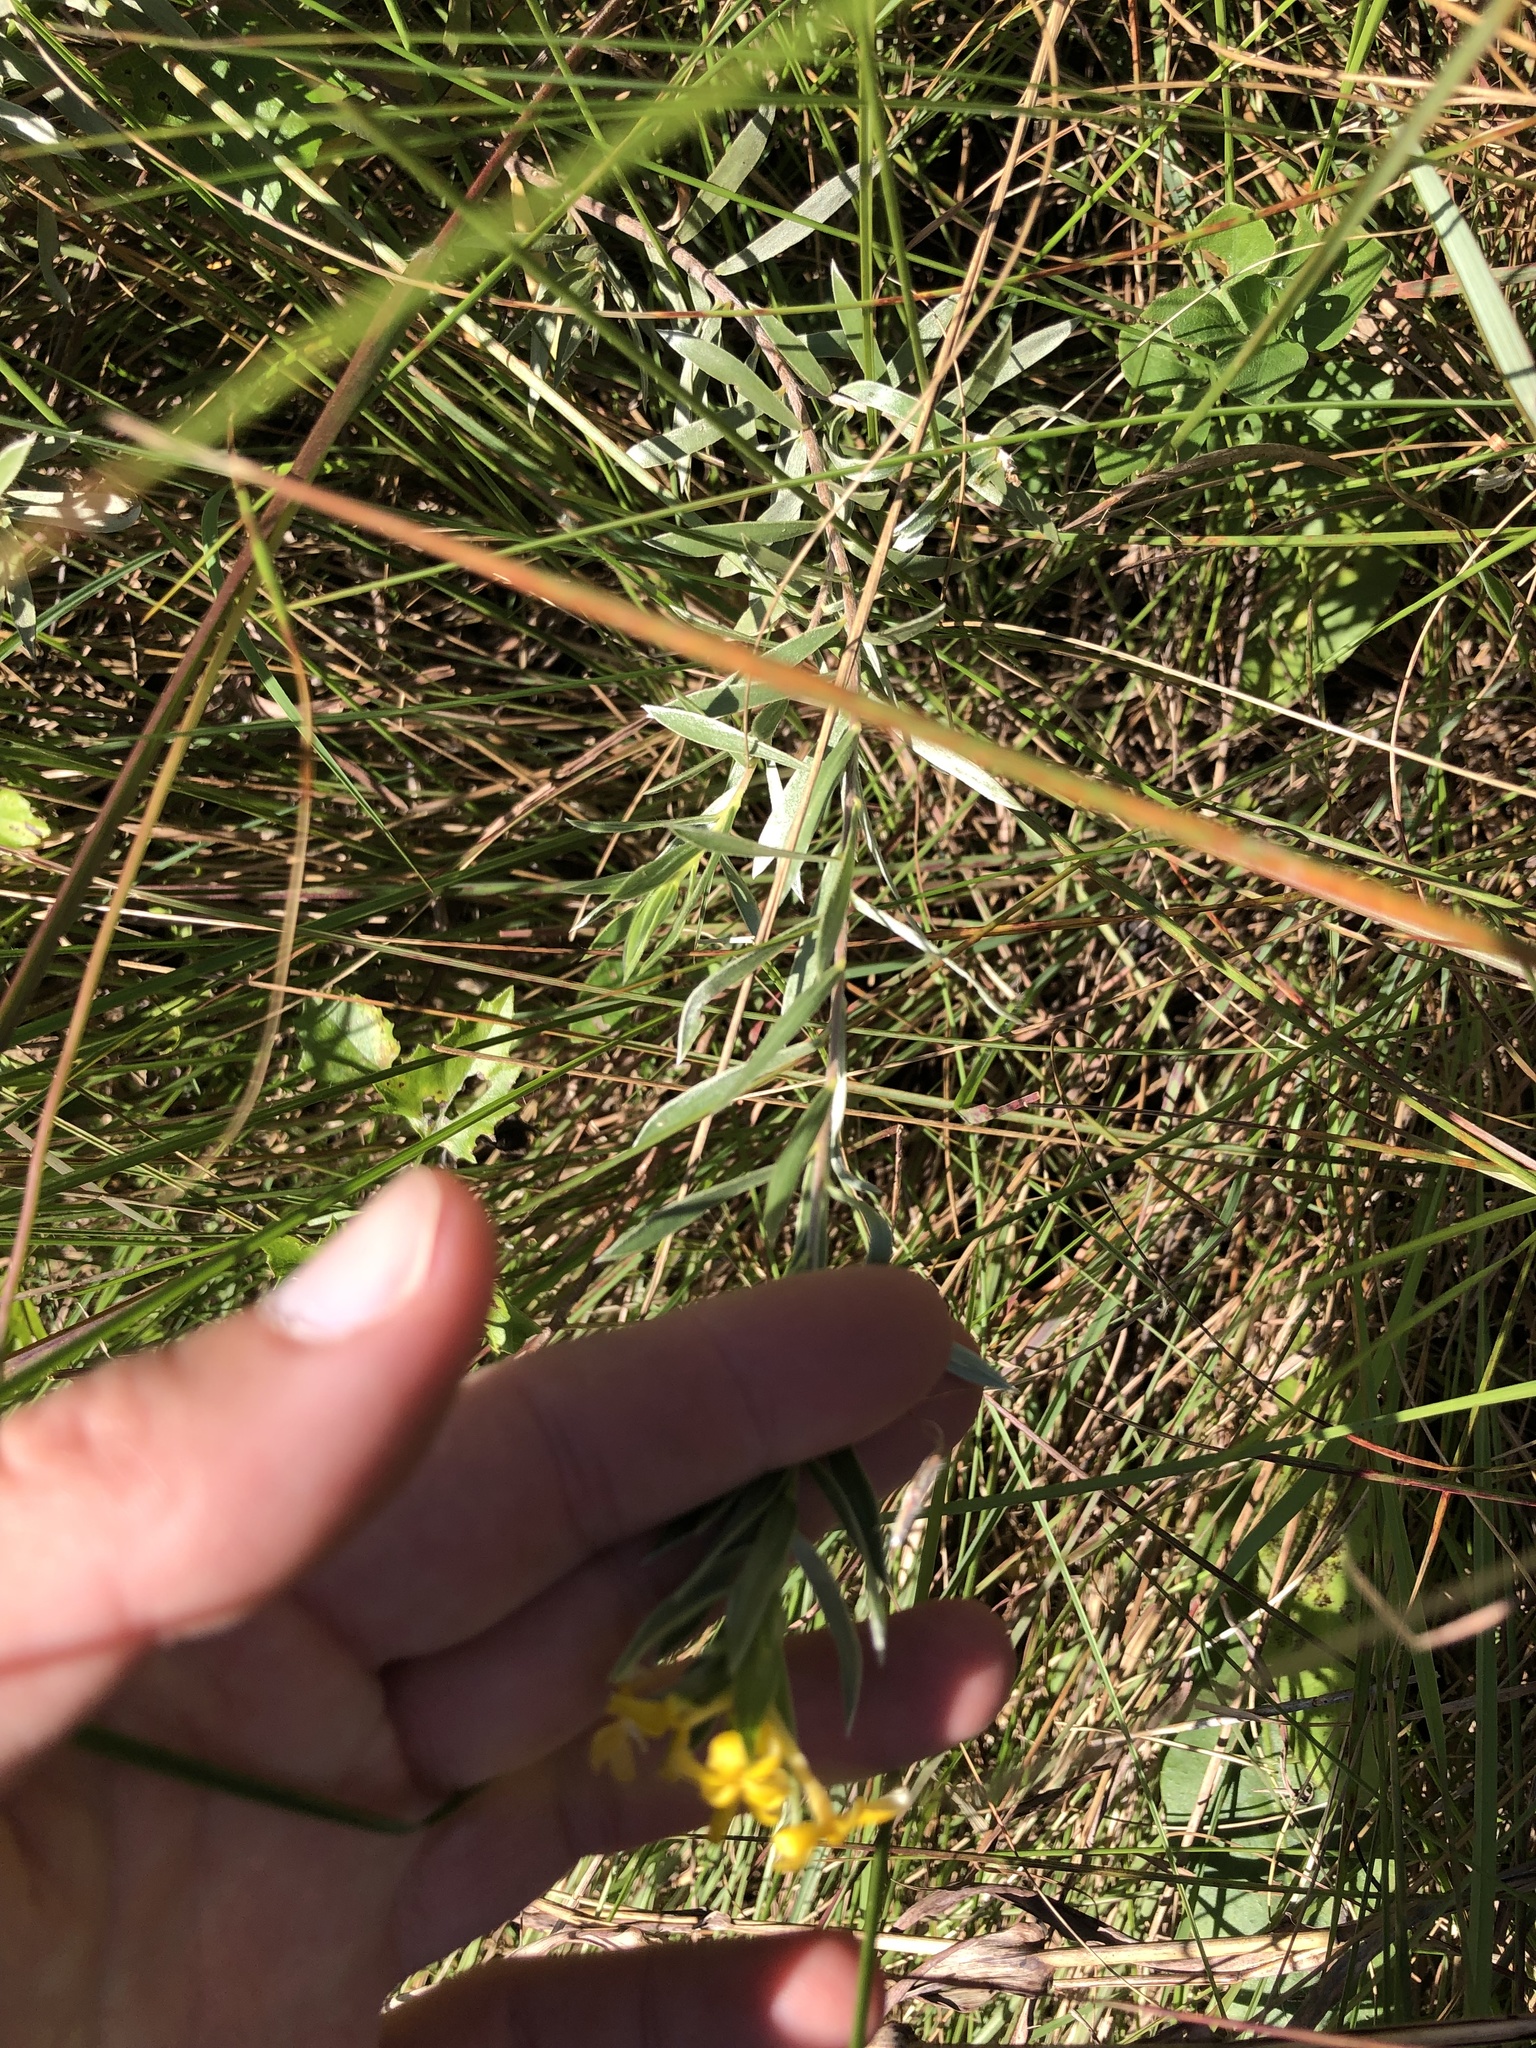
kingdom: Plantae
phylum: Tracheophyta
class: Magnoliopsida
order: Malvales
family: Thymelaeaceae
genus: Gnidia
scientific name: Gnidia caffra
